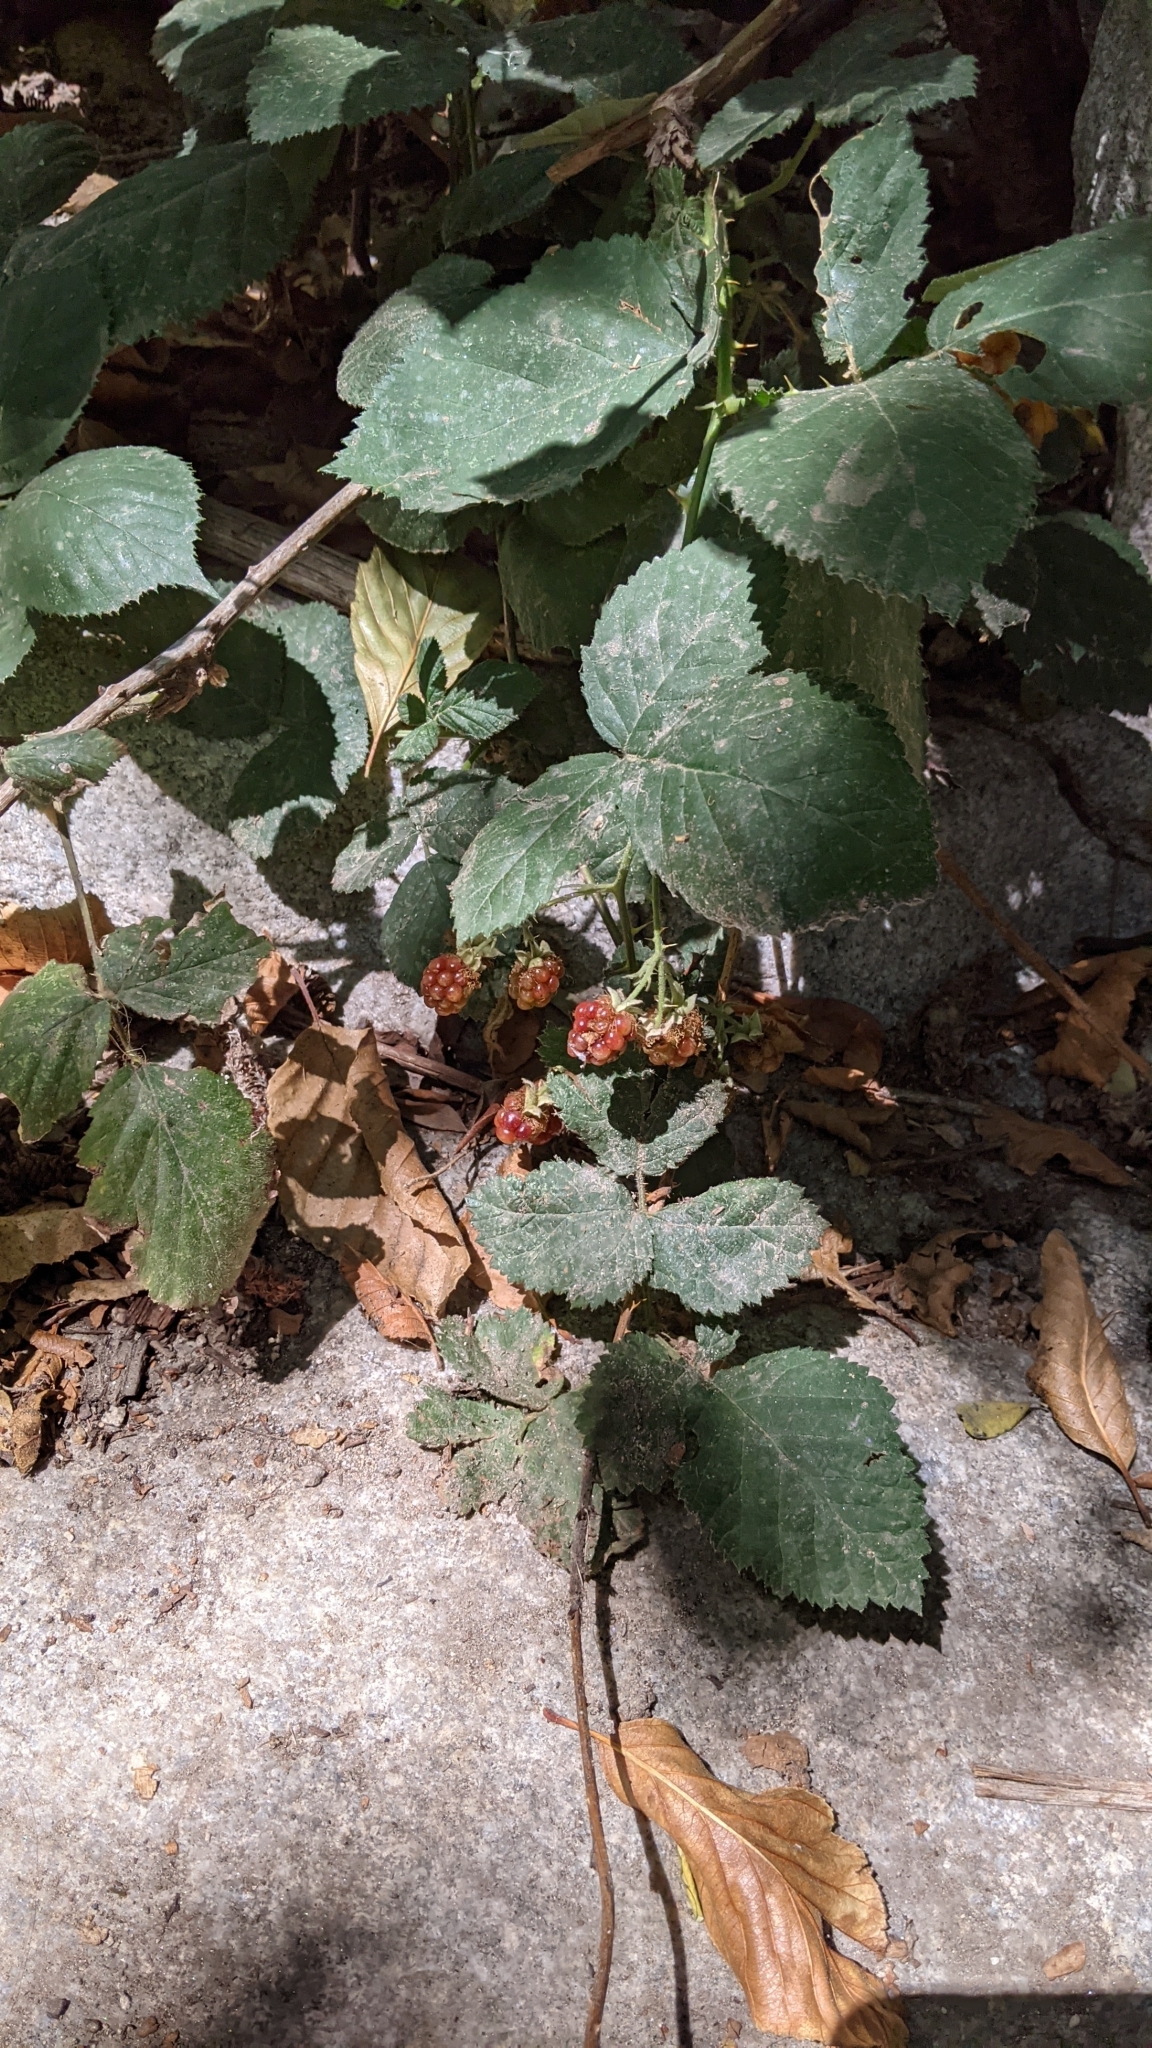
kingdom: Plantae
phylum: Tracheophyta
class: Magnoliopsida
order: Rosales
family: Rosaceae
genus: Rubus
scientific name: Rubus armeniacus
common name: Himalayan blackberry
